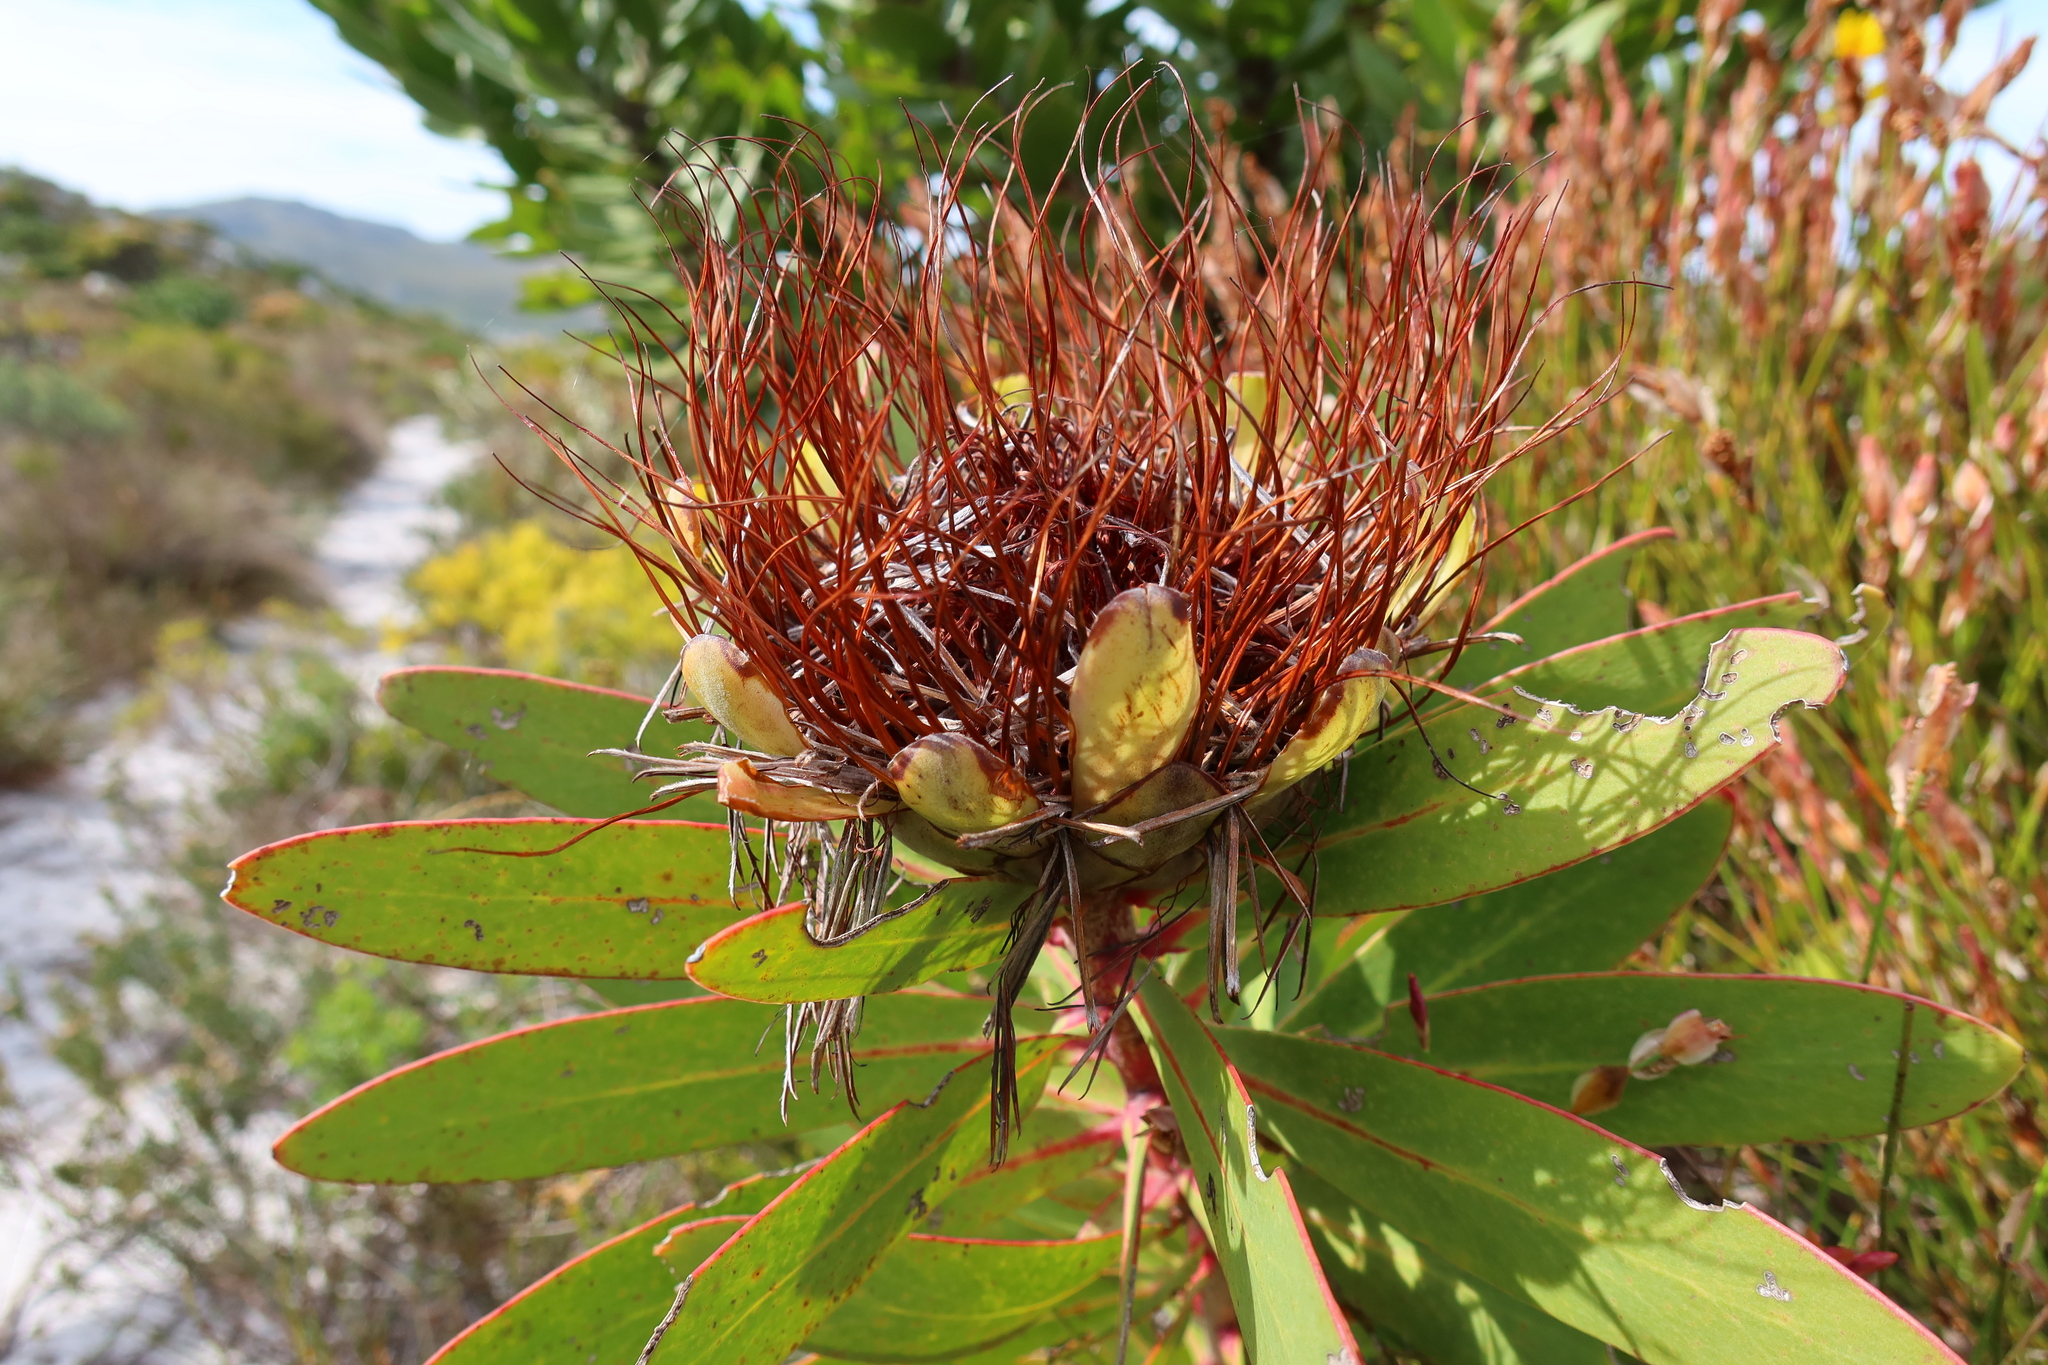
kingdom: Plantae
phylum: Tracheophyta
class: Magnoliopsida
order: Proteales
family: Proteaceae
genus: Protea
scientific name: Protea nitida
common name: Tree protea
